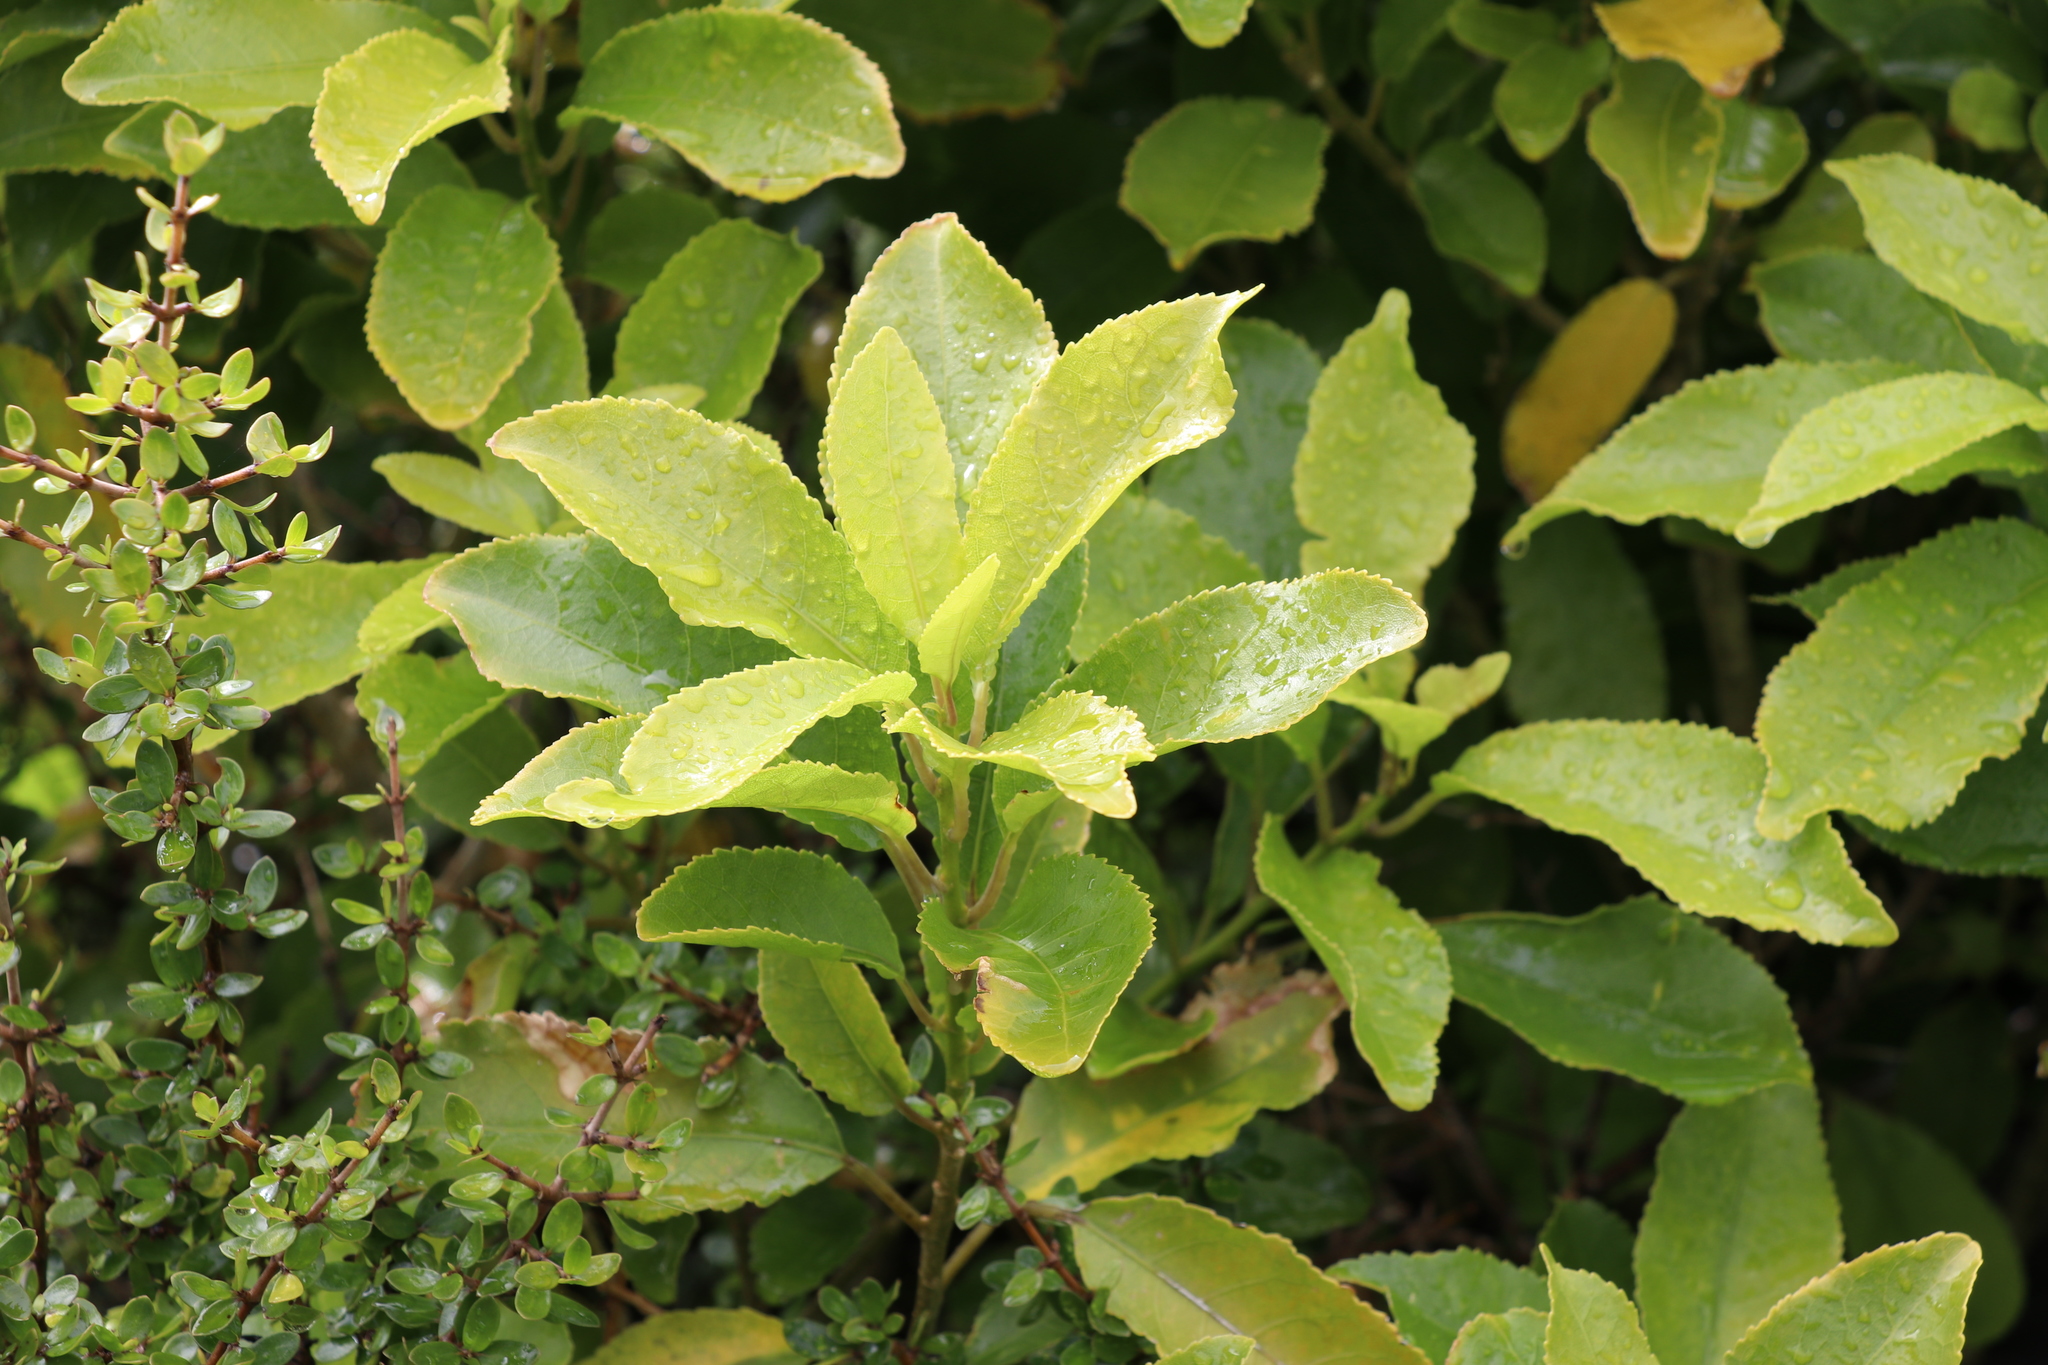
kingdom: Plantae
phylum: Tracheophyta
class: Magnoliopsida
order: Malpighiales
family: Violaceae
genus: Melicytus
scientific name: Melicytus ramiflorus
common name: Mahoe
